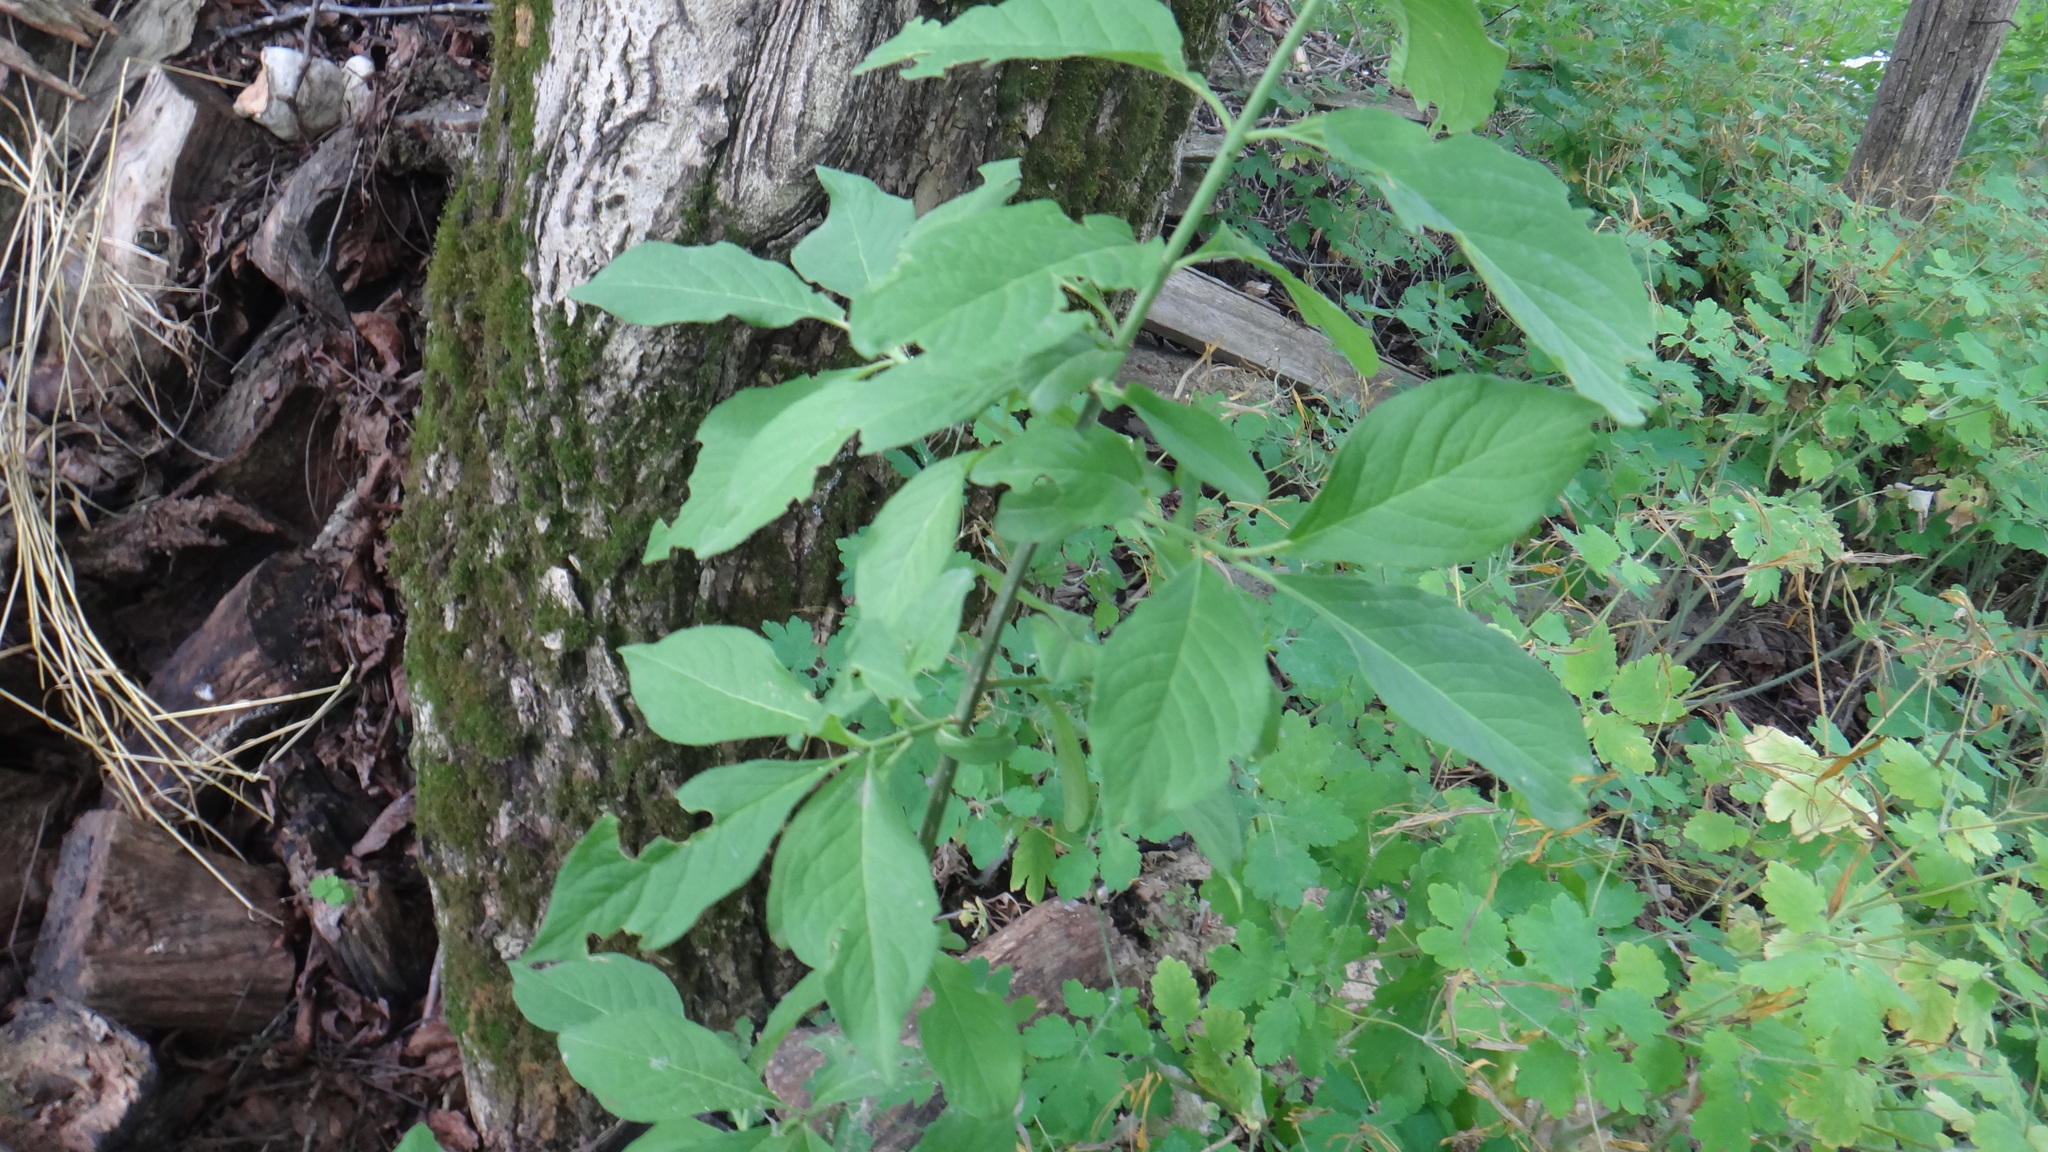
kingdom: Plantae
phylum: Tracheophyta
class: Magnoliopsida
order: Celastrales
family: Celastraceae
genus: Euonymus
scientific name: Euonymus europaeus
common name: Spindle
